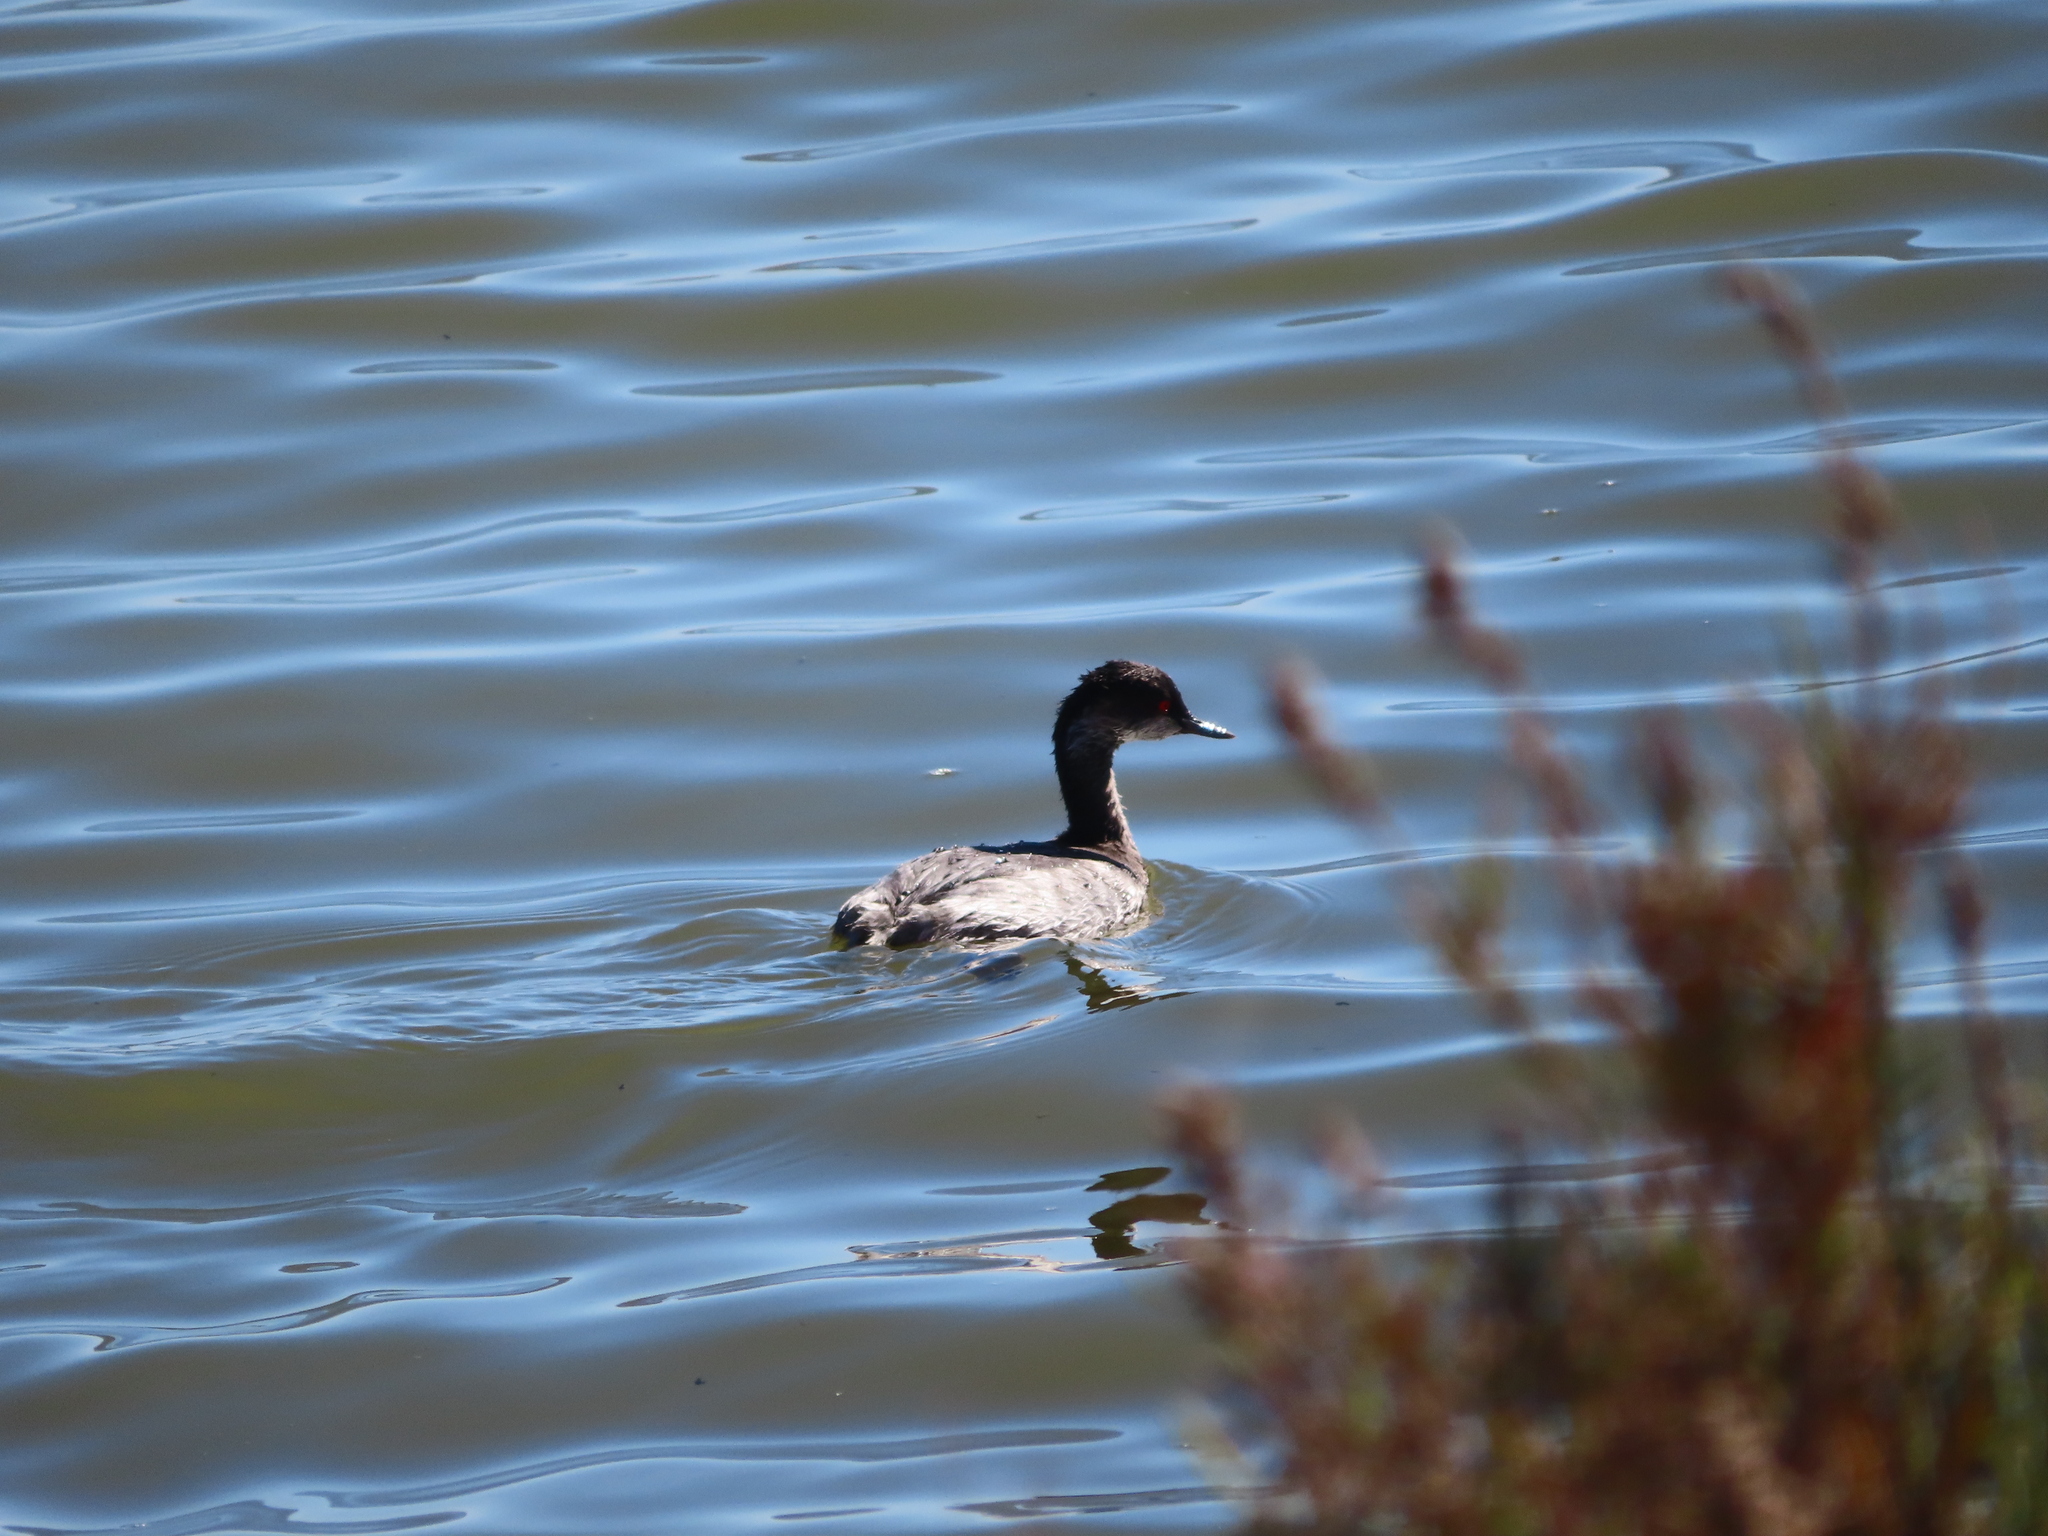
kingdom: Animalia
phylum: Chordata
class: Aves
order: Podicipediformes
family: Podicipedidae
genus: Podiceps
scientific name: Podiceps nigricollis
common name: Black-necked grebe
